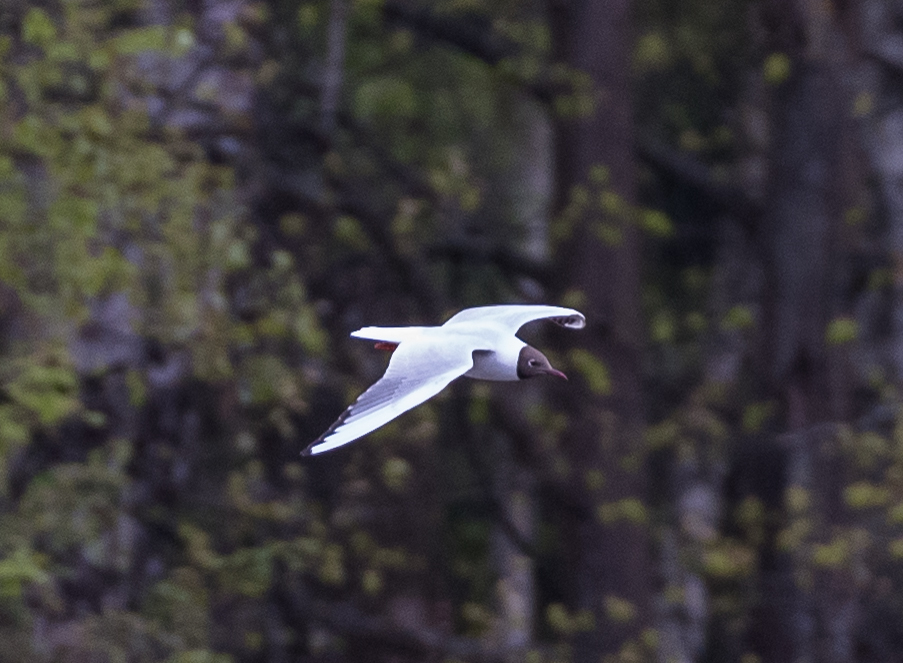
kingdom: Animalia
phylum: Chordata
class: Aves
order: Charadriiformes
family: Laridae
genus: Chroicocephalus
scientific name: Chroicocephalus ridibundus
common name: Black-headed gull
